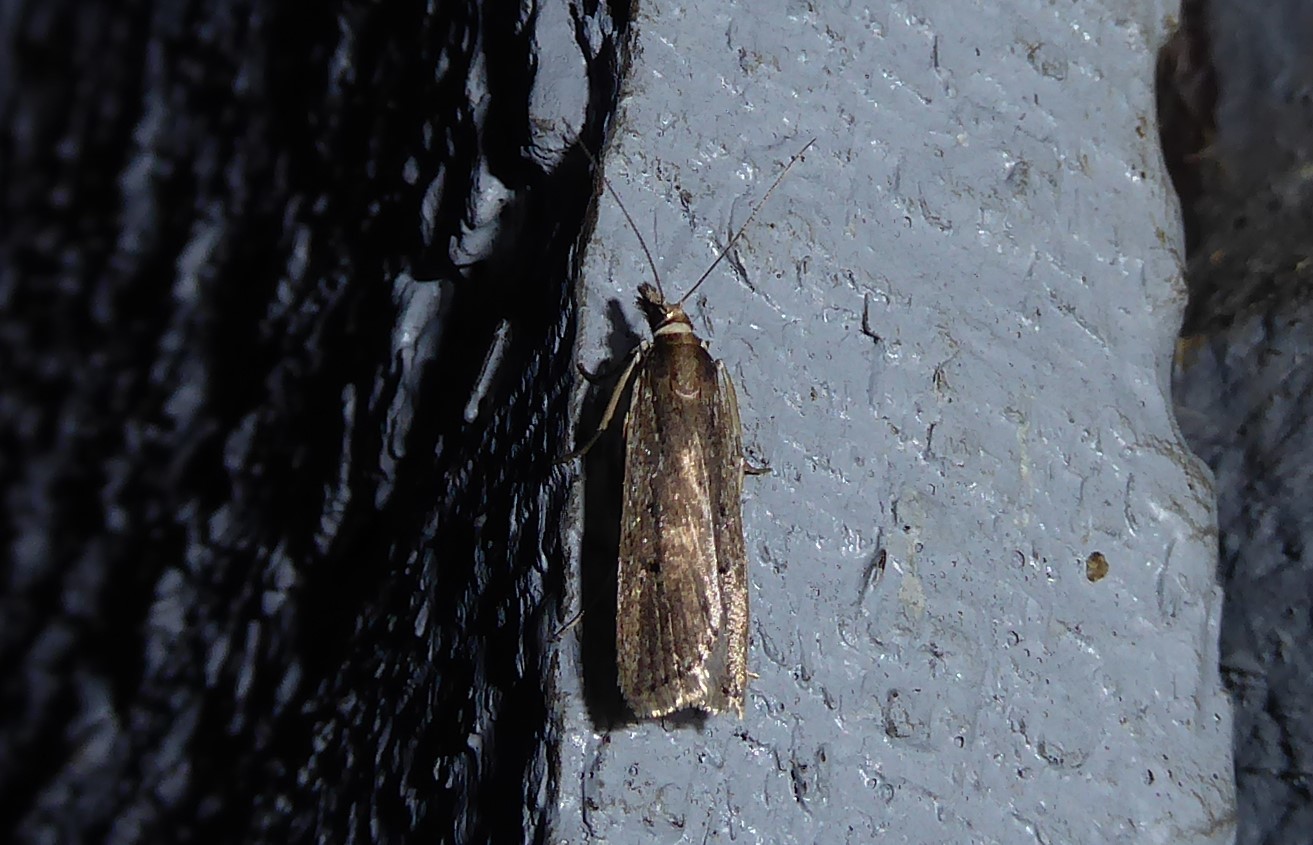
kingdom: Animalia
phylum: Arthropoda
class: Insecta
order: Lepidoptera
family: Crambidae
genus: Eudonia
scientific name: Eudonia sabulosella
